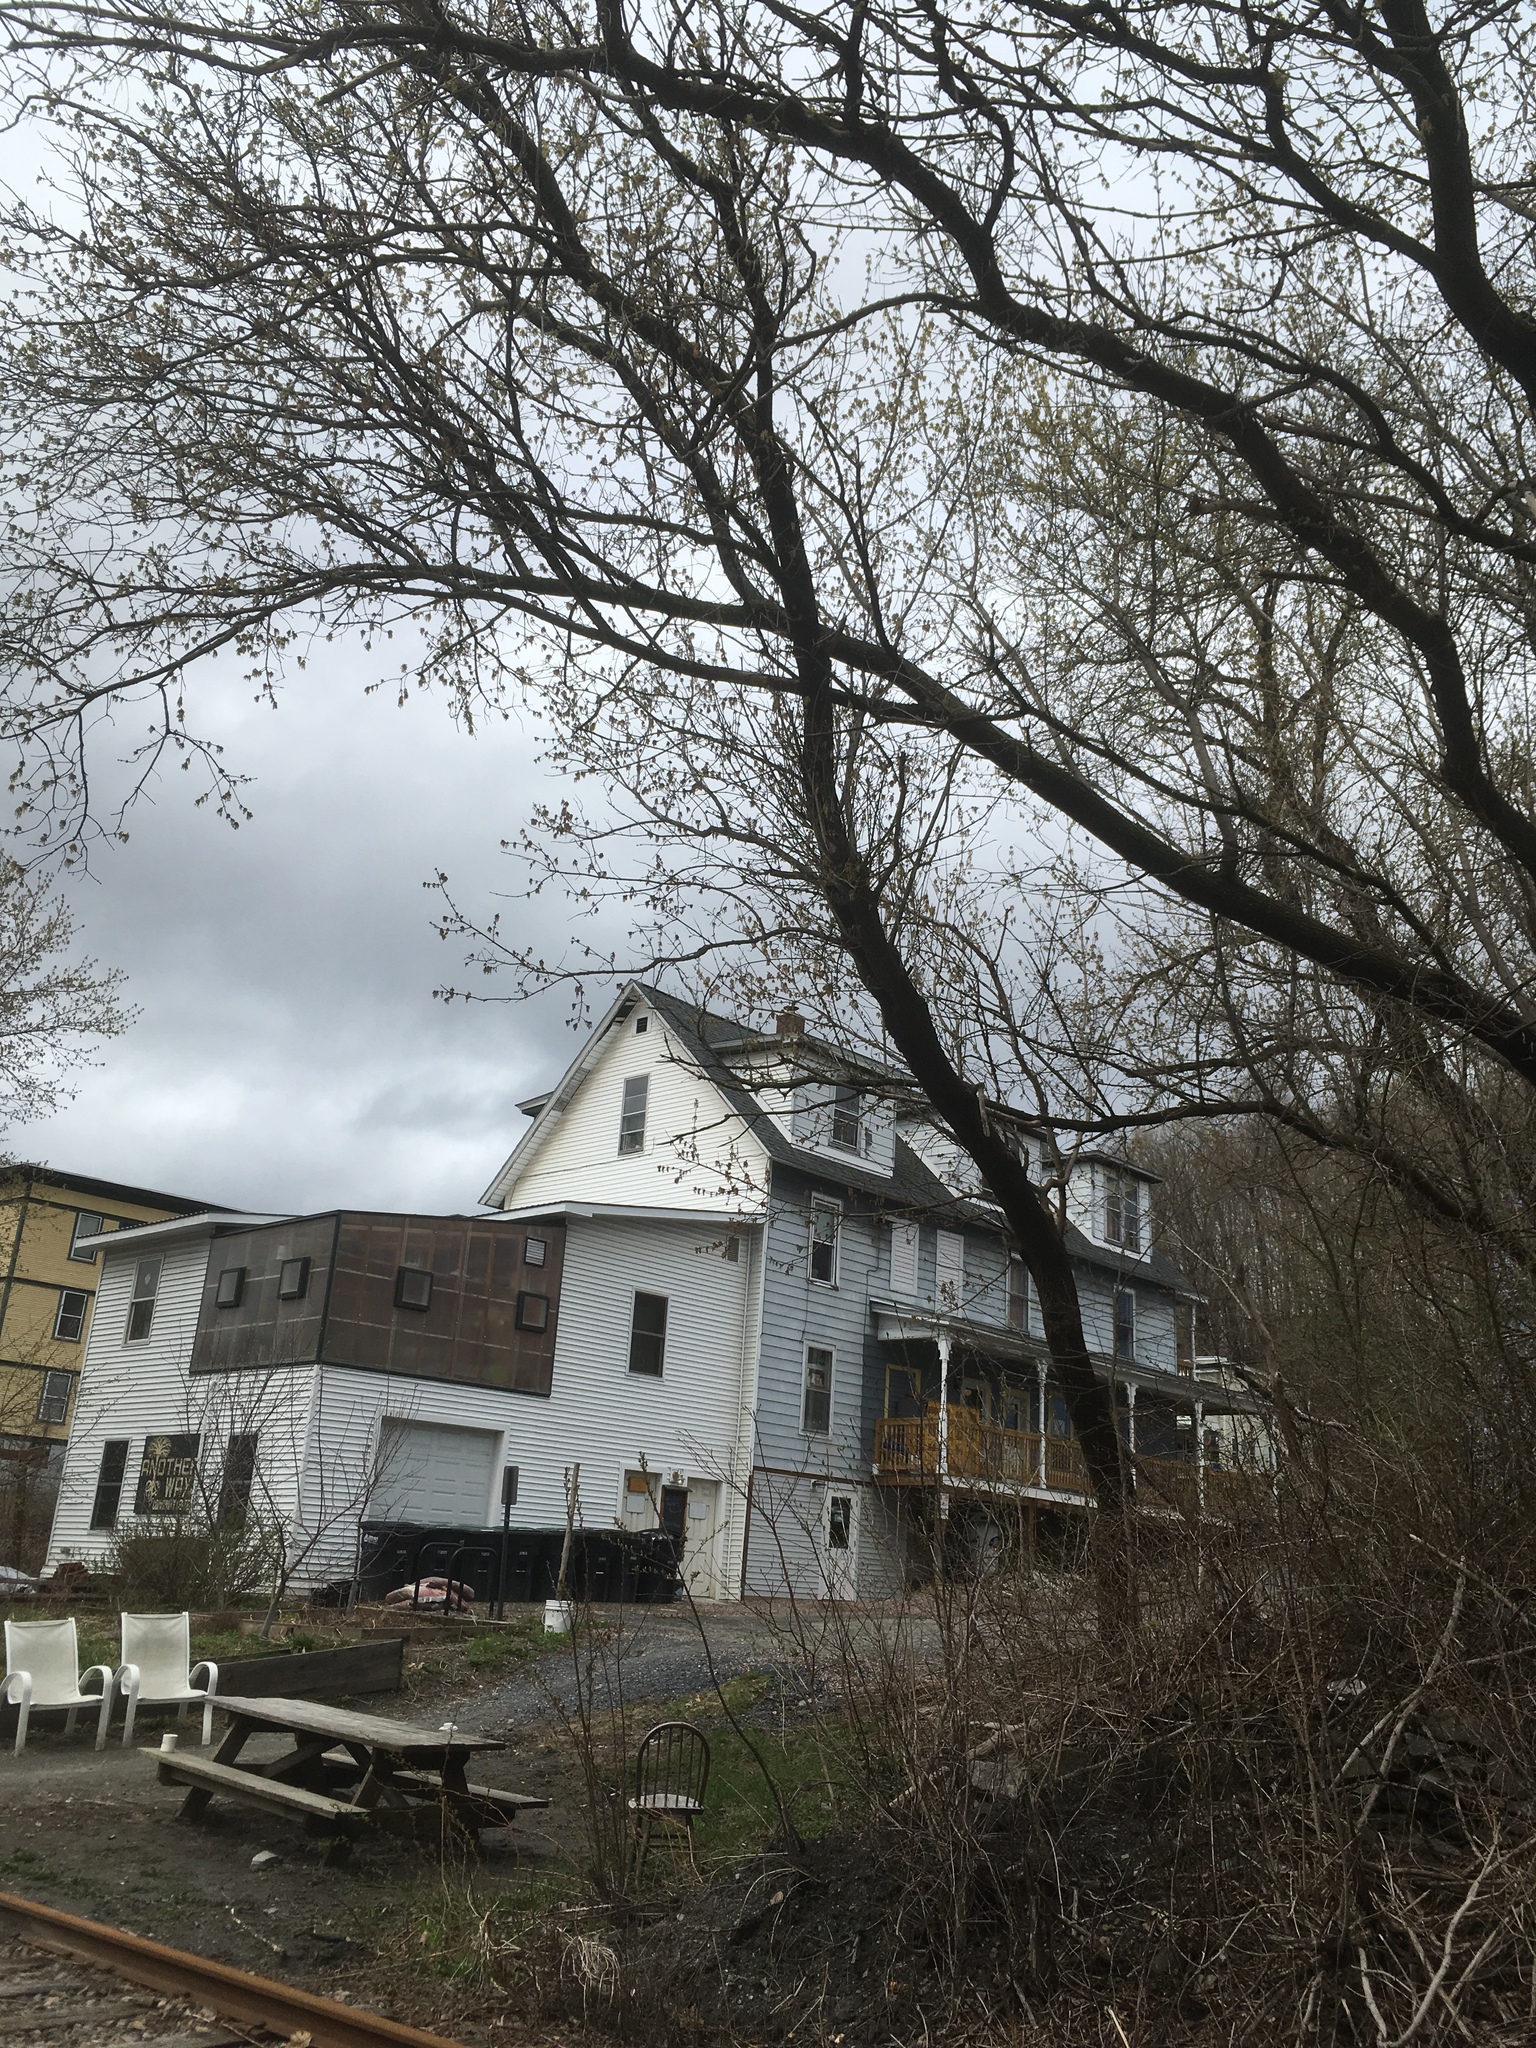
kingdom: Plantae
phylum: Tracheophyta
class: Magnoliopsida
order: Sapindales
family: Sapindaceae
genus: Acer
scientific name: Acer negundo
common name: Ashleaf maple
